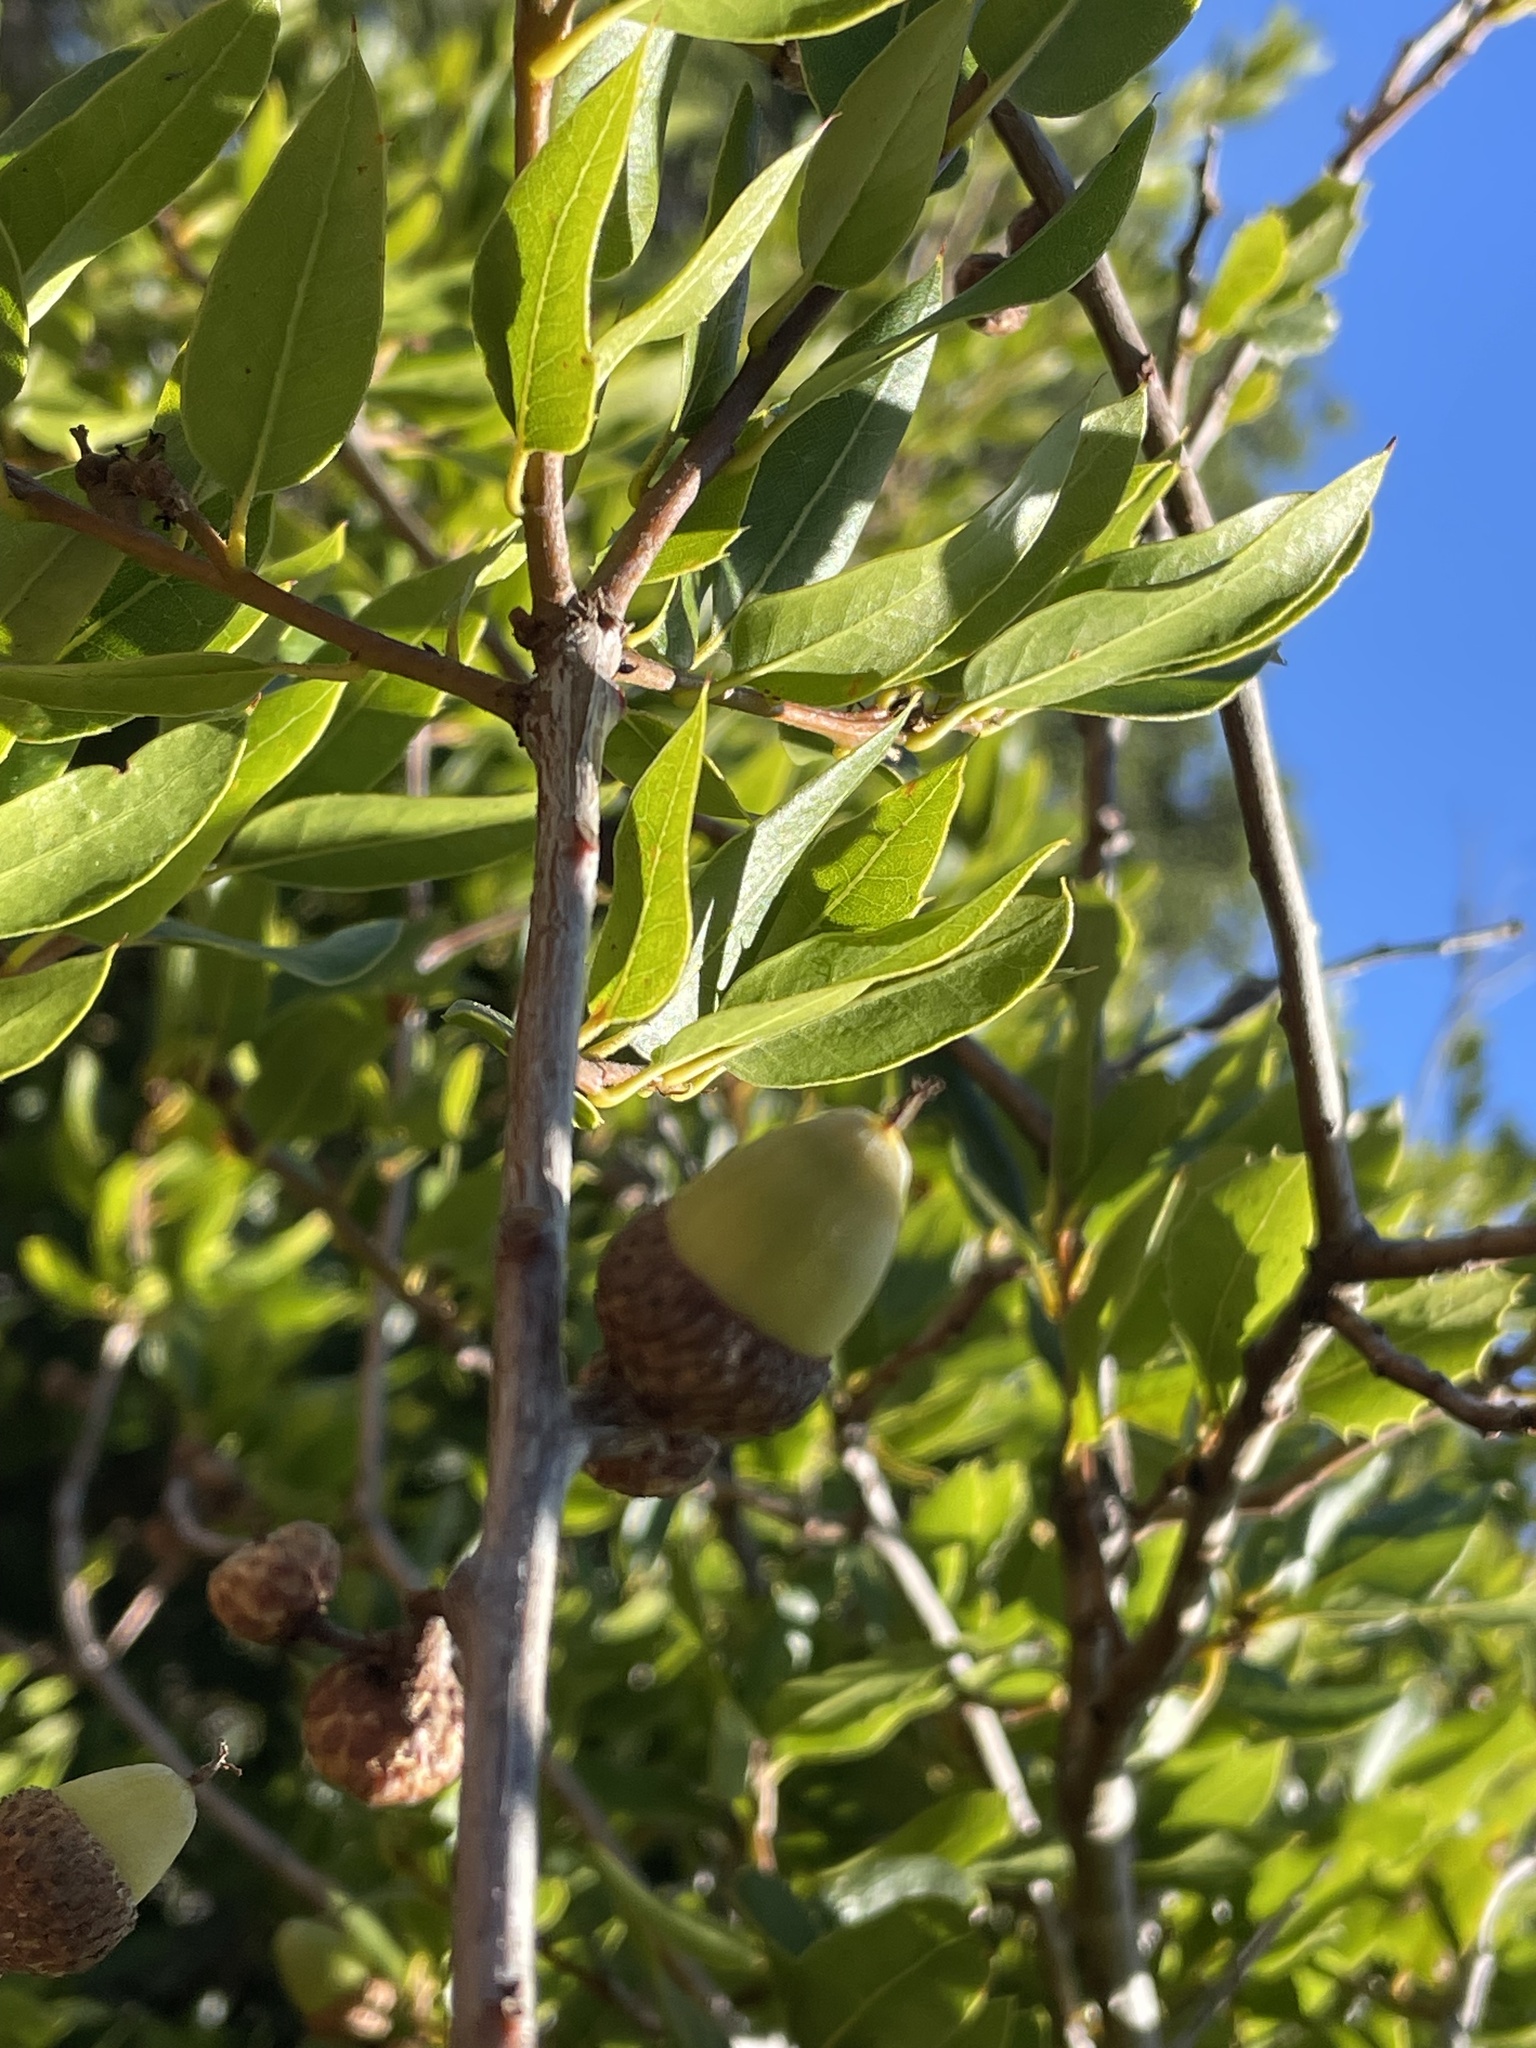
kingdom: Plantae
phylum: Tracheophyta
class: Magnoliopsida
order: Fagales
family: Fagaceae
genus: Quercus
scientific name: Quercus parvula
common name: Santa cruz island oak
